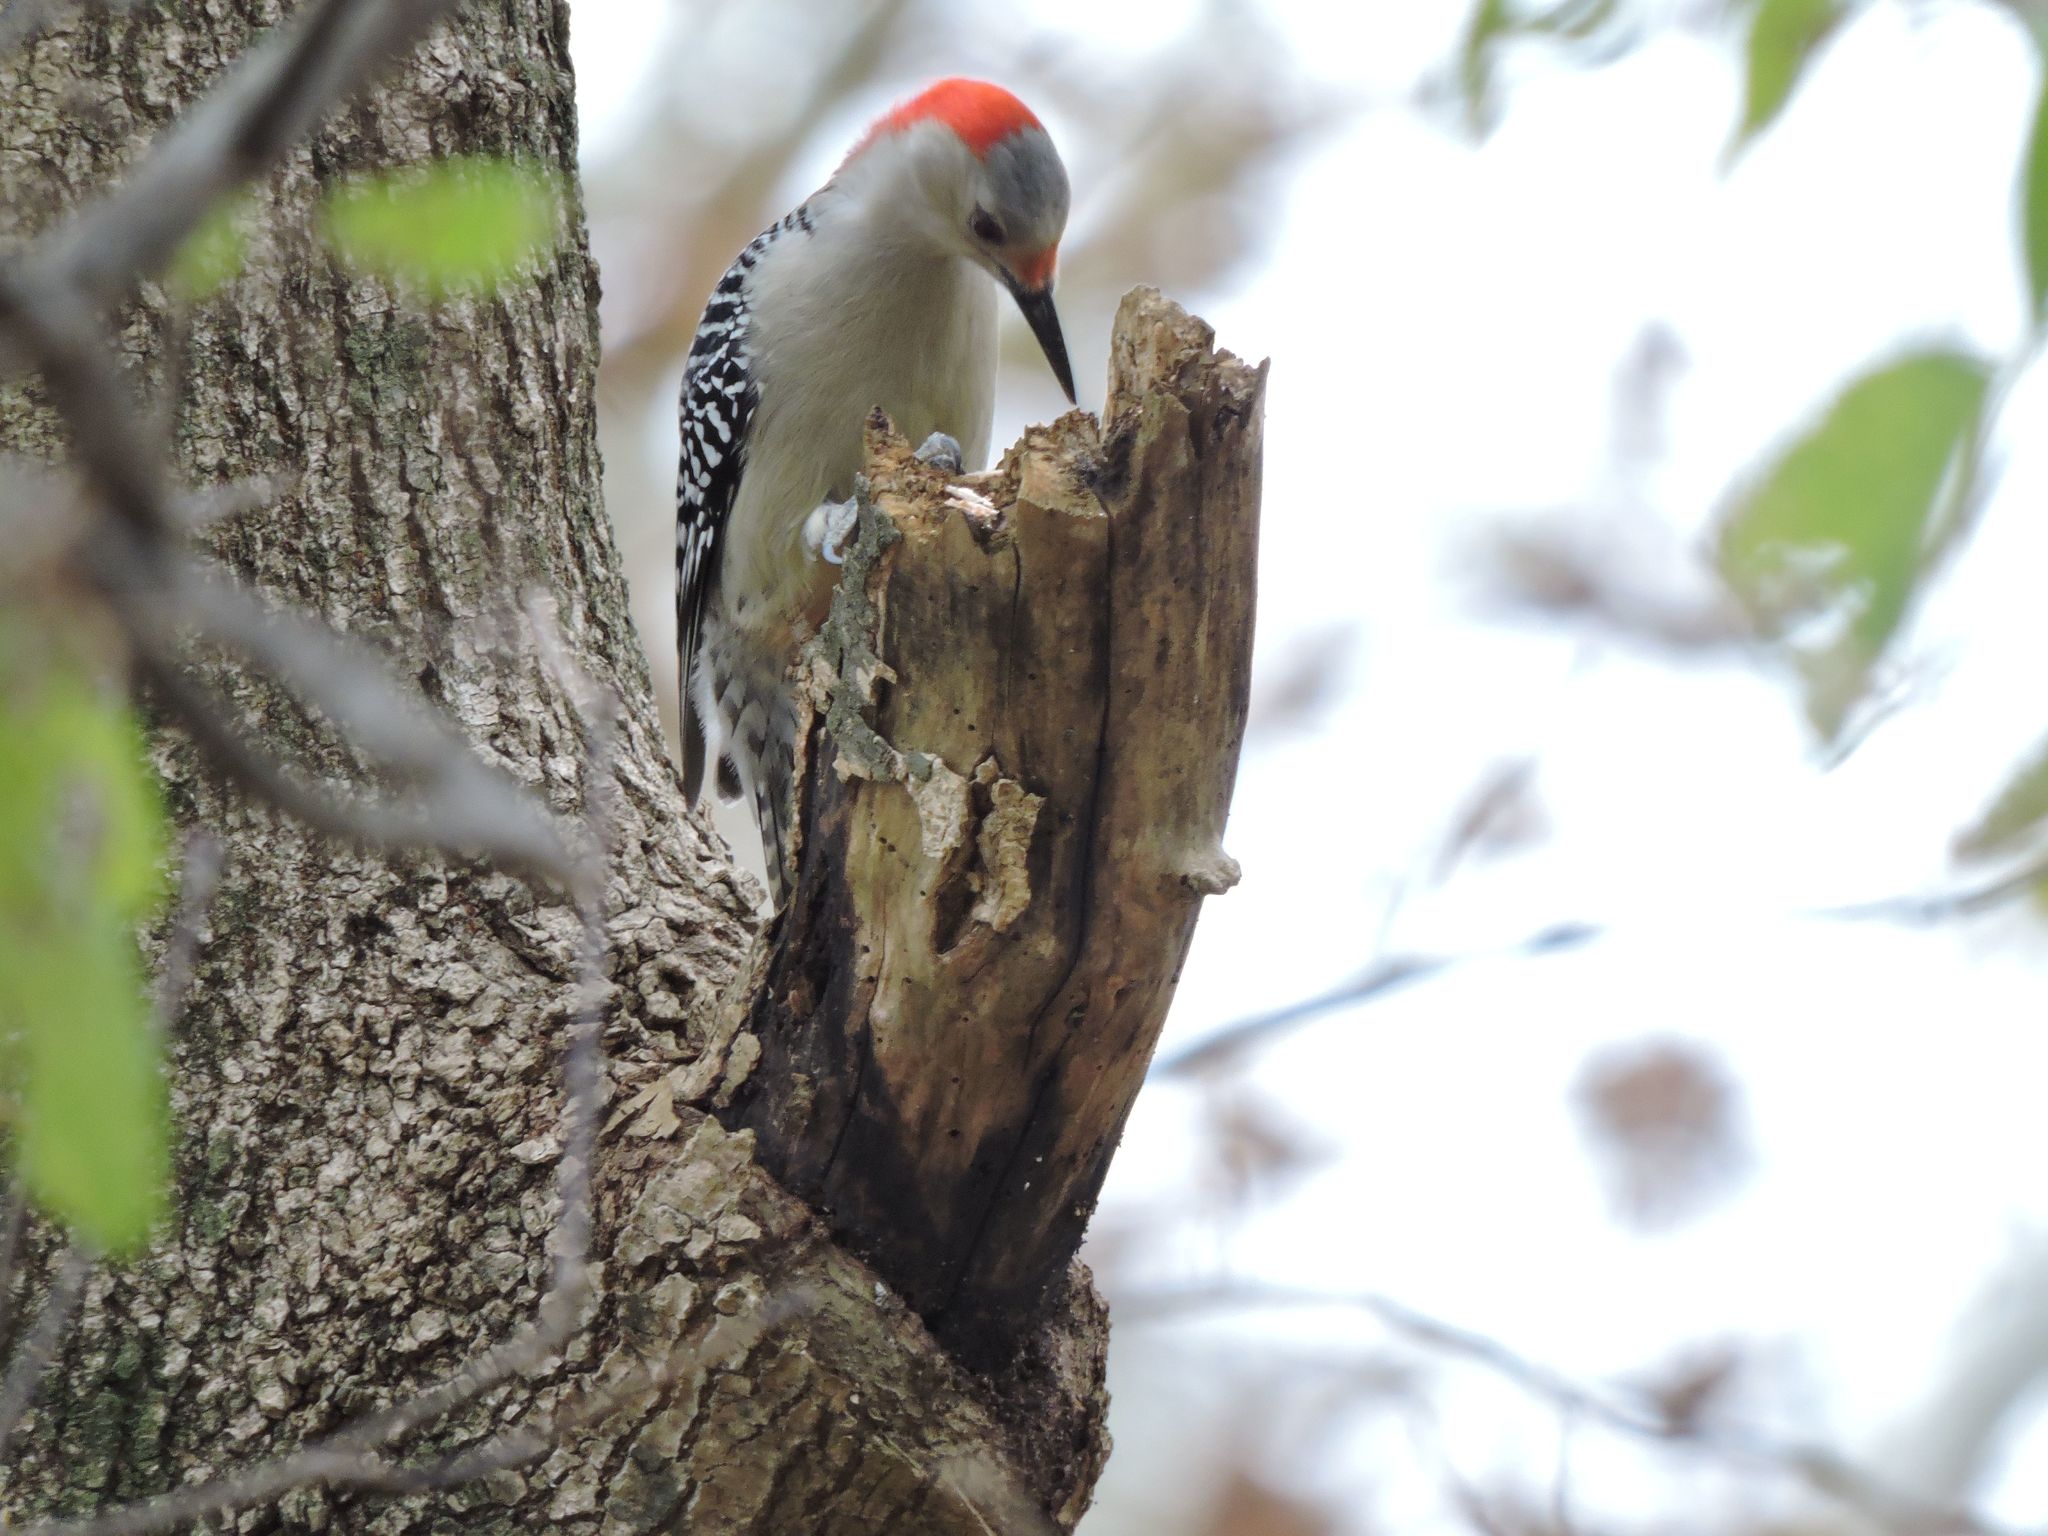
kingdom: Animalia
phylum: Chordata
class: Aves
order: Piciformes
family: Picidae
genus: Melanerpes
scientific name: Melanerpes carolinus
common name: Red-bellied woodpecker
